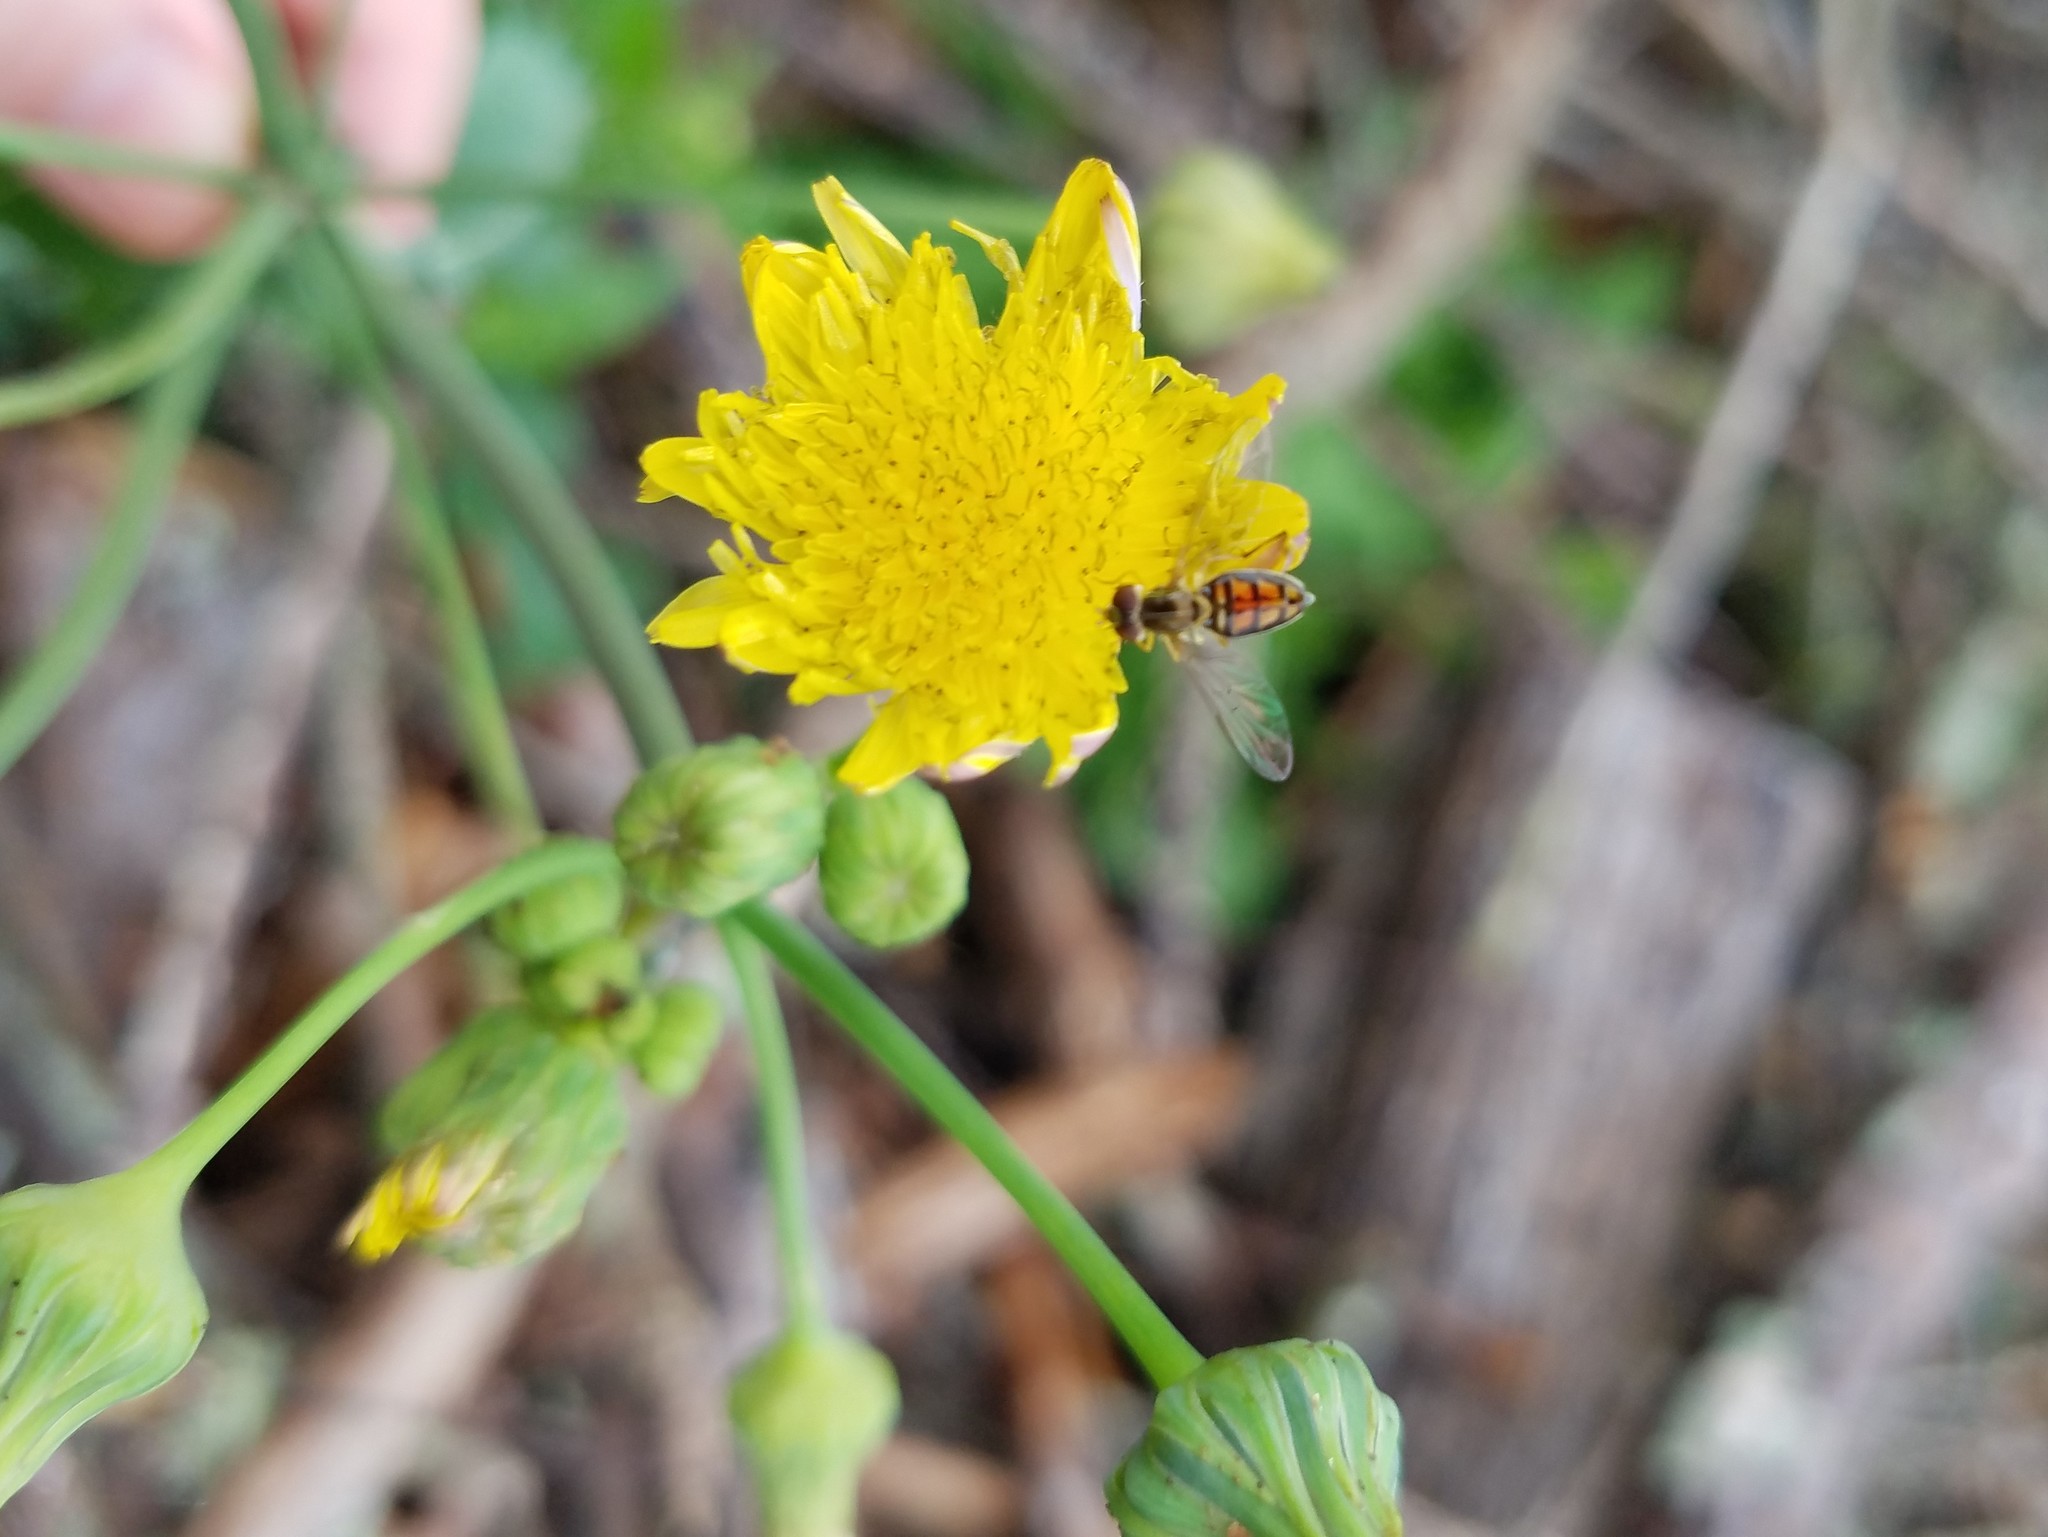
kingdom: Plantae
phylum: Tracheophyta
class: Magnoliopsida
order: Asterales
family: Asteraceae
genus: Sonchus
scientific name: Sonchus asper
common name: Prickly sow-thistle
